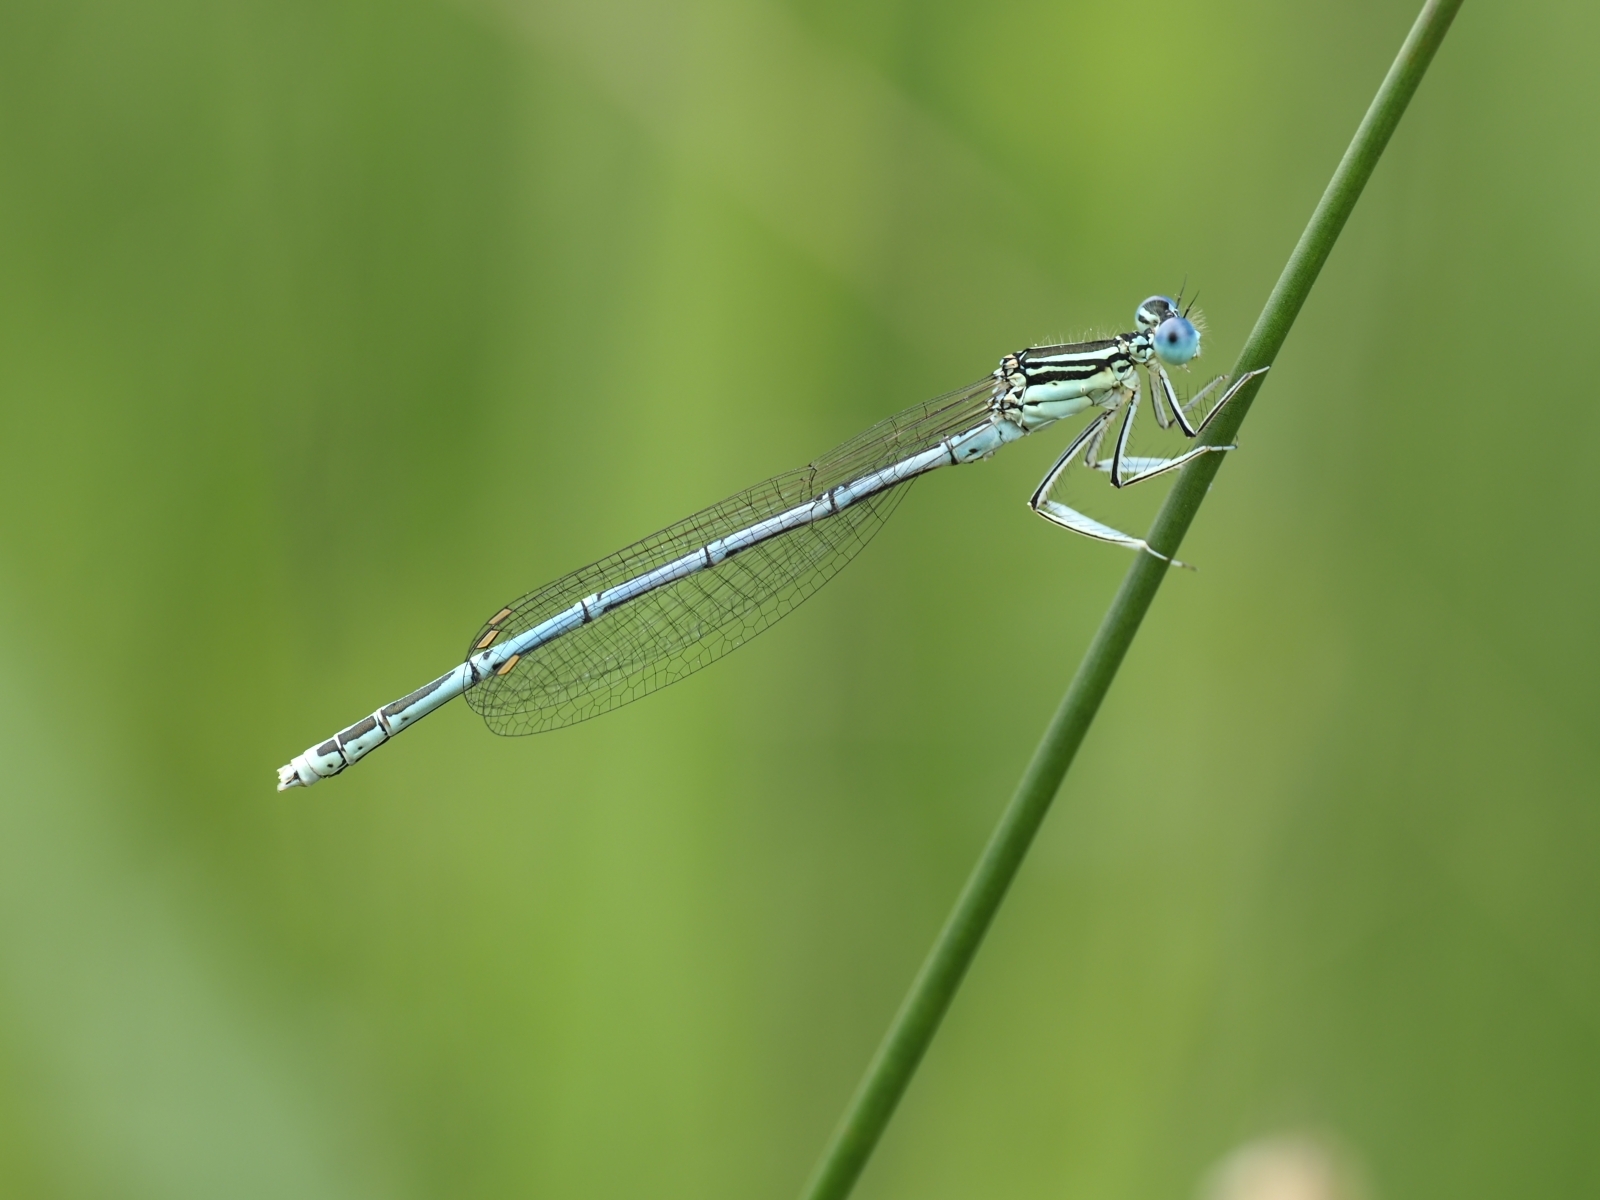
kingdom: Animalia
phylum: Arthropoda
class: Insecta
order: Odonata
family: Platycnemididae
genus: Platycnemis
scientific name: Platycnemis pennipes
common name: White-legged damselfly
